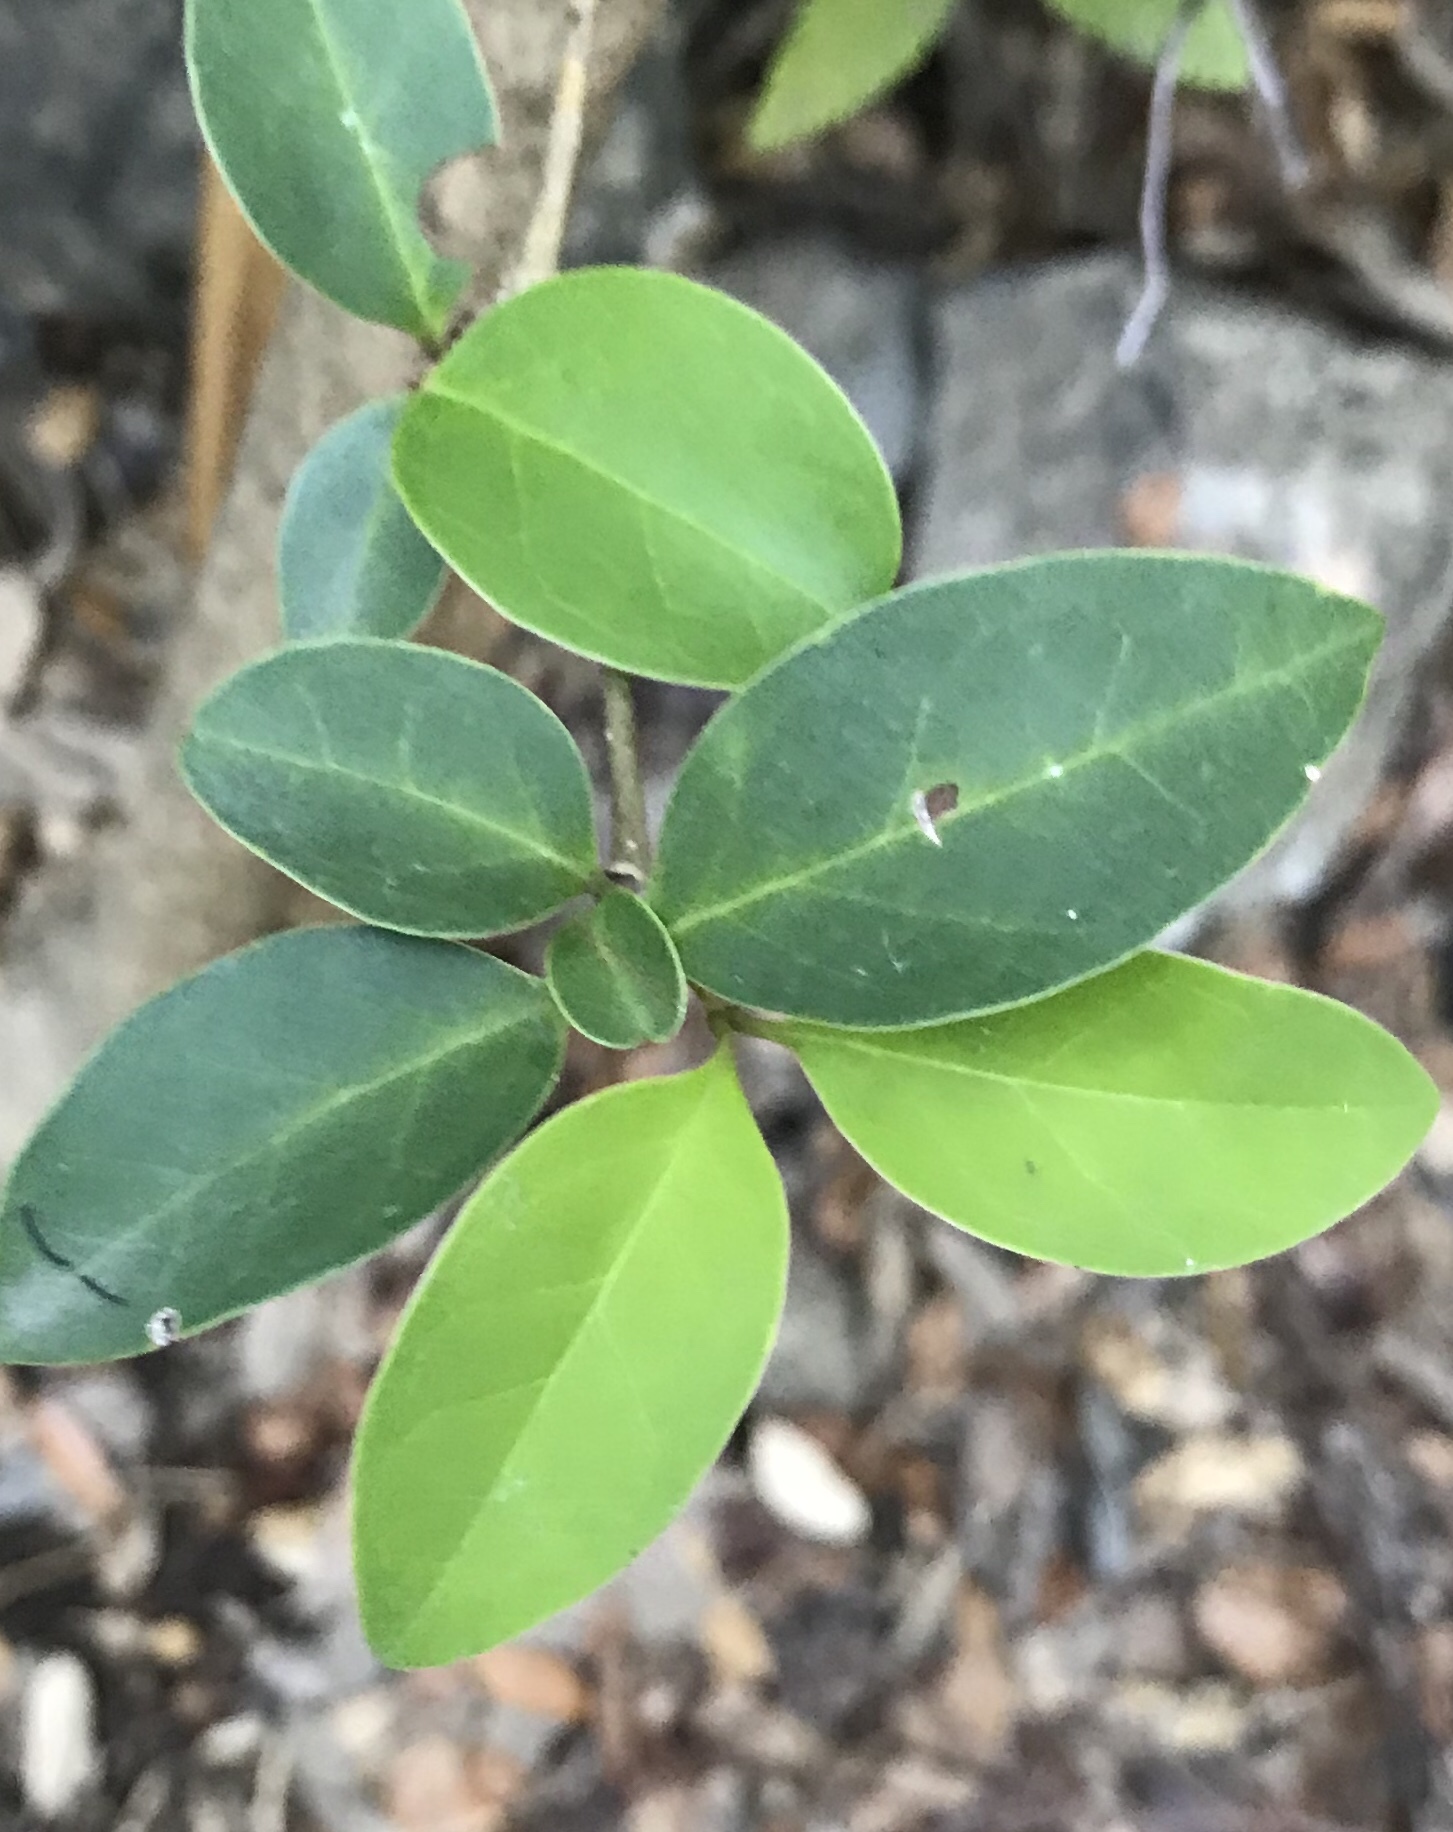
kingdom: Plantae
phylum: Tracheophyta
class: Magnoliopsida
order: Lamiales
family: Oleaceae
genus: Ligustrum
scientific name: Ligustrum lucidum
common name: Glossy privet
